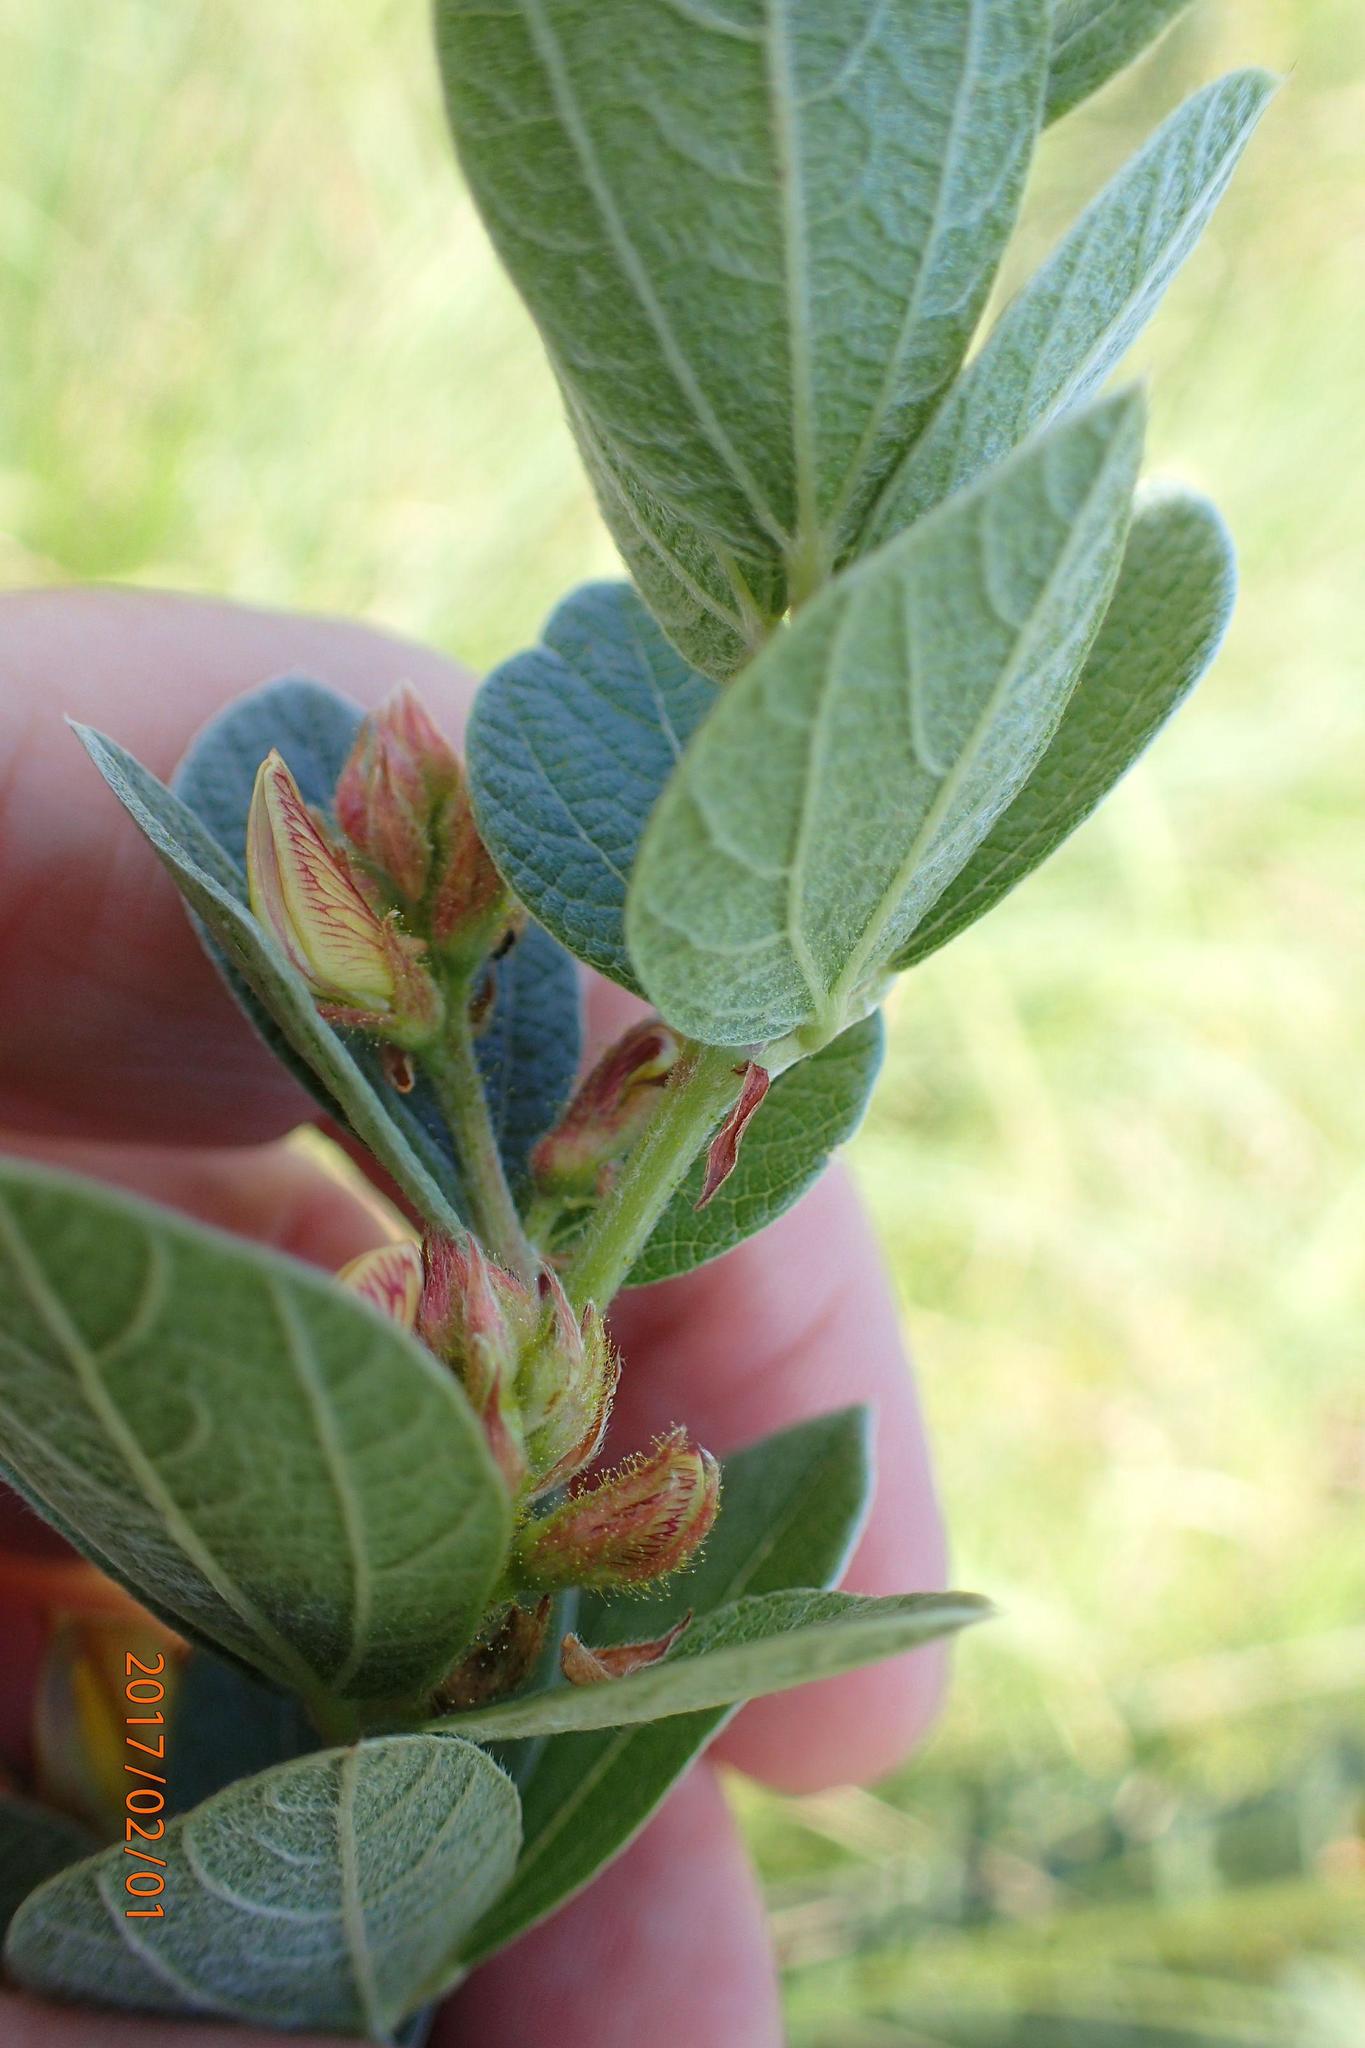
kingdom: Plantae
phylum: Tracheophyta
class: Magnoliopsida
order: Fabales
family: Fabaceae
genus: Rhynchosia
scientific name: Rhynchosia woodii
